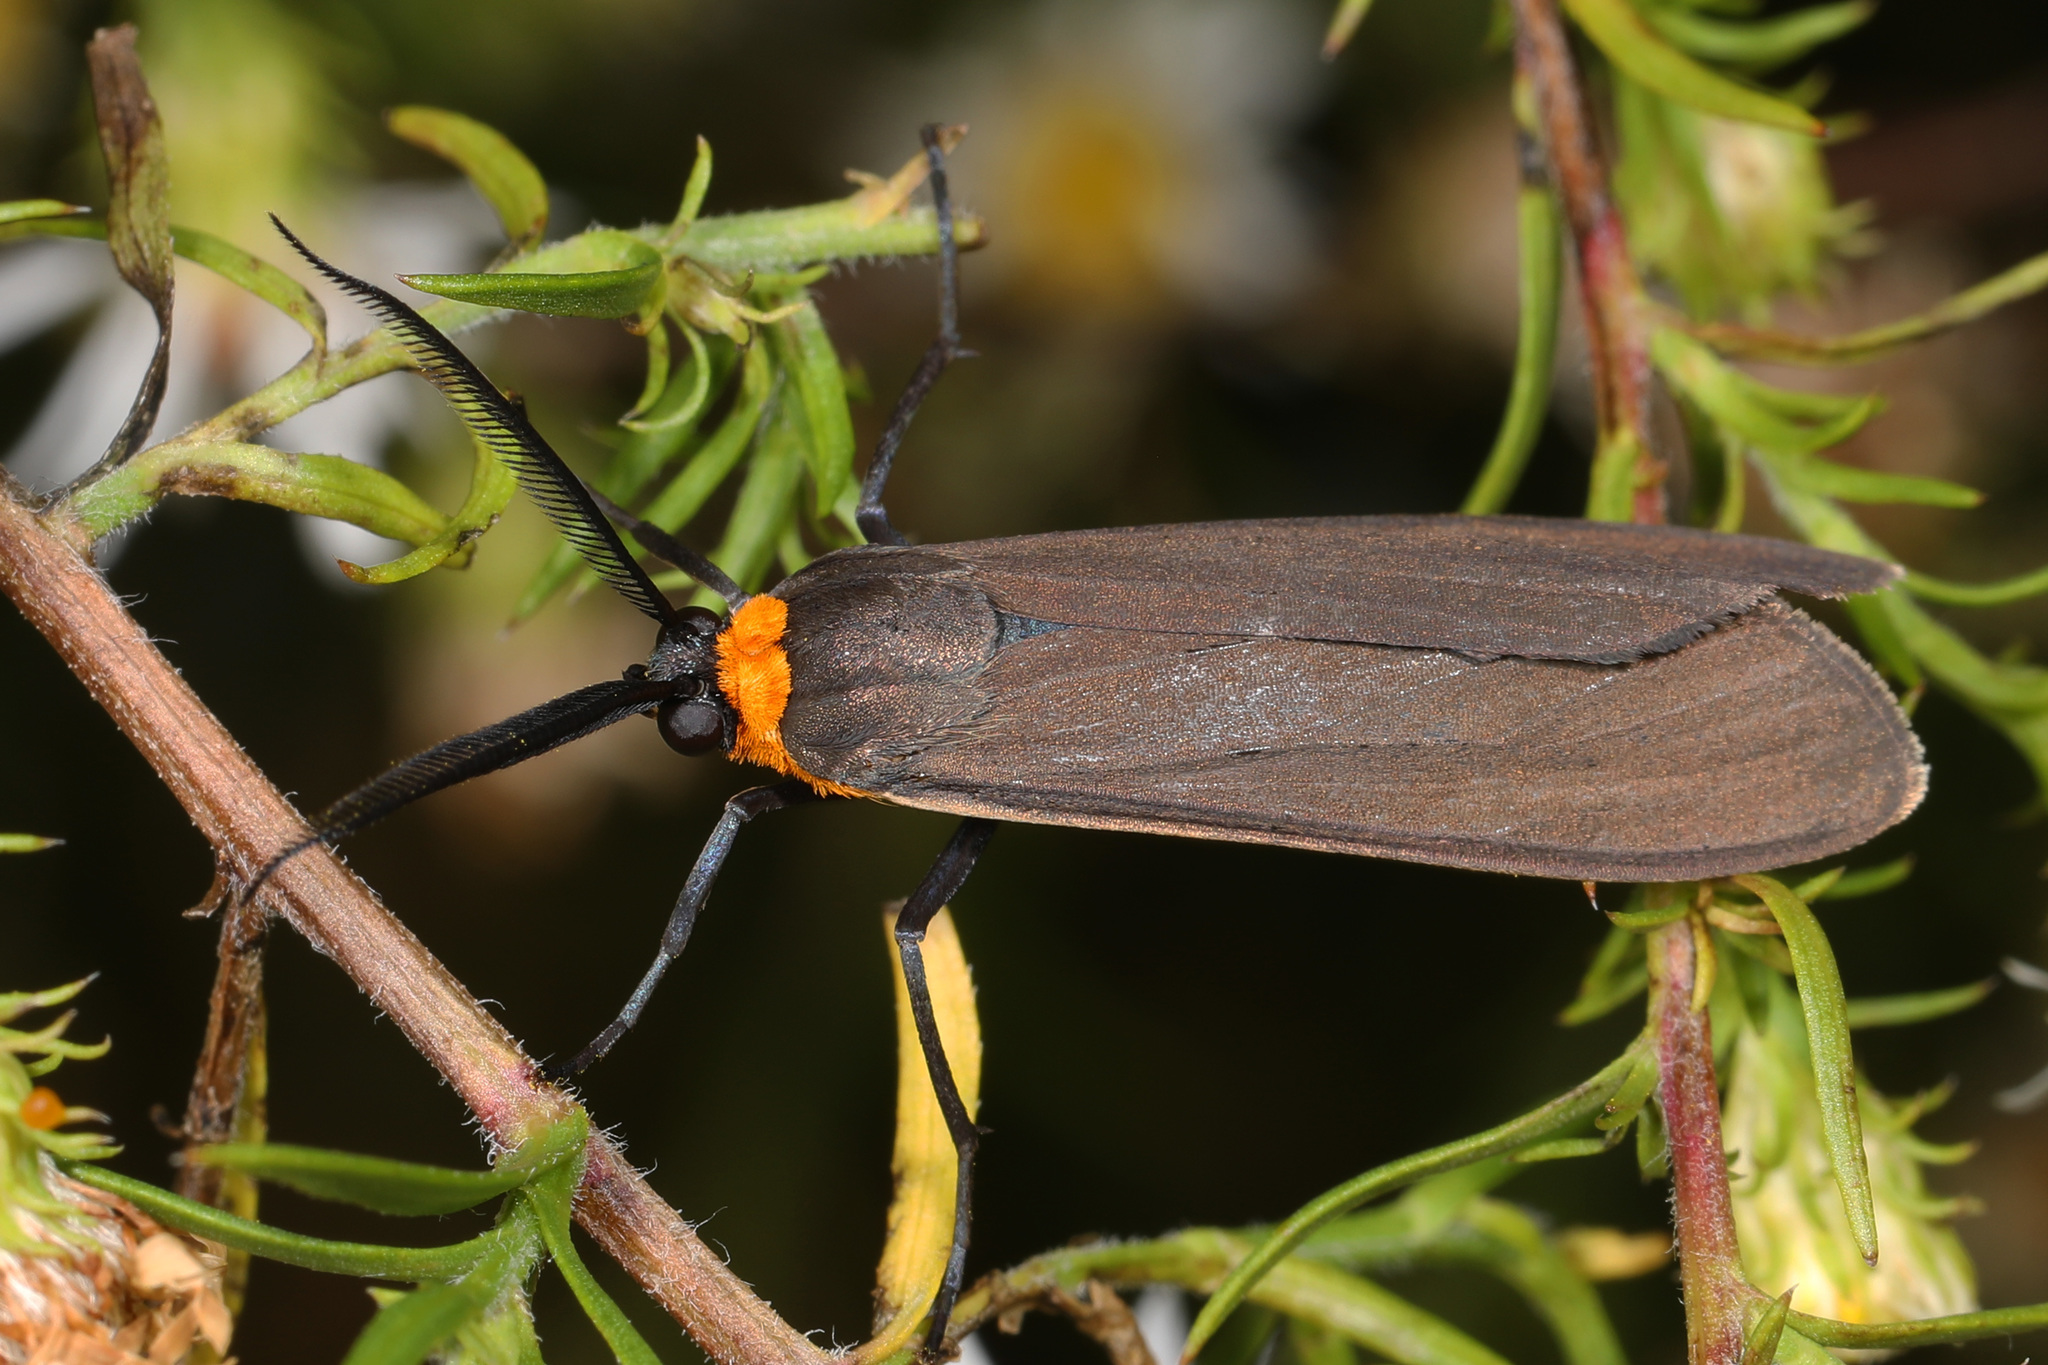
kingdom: Animalia
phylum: Arthropoda
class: Insecta
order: Lepidoptera
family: Erebidae
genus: Cisseps
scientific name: Cisseps fulvicollis
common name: Yellow-collared scape moth
